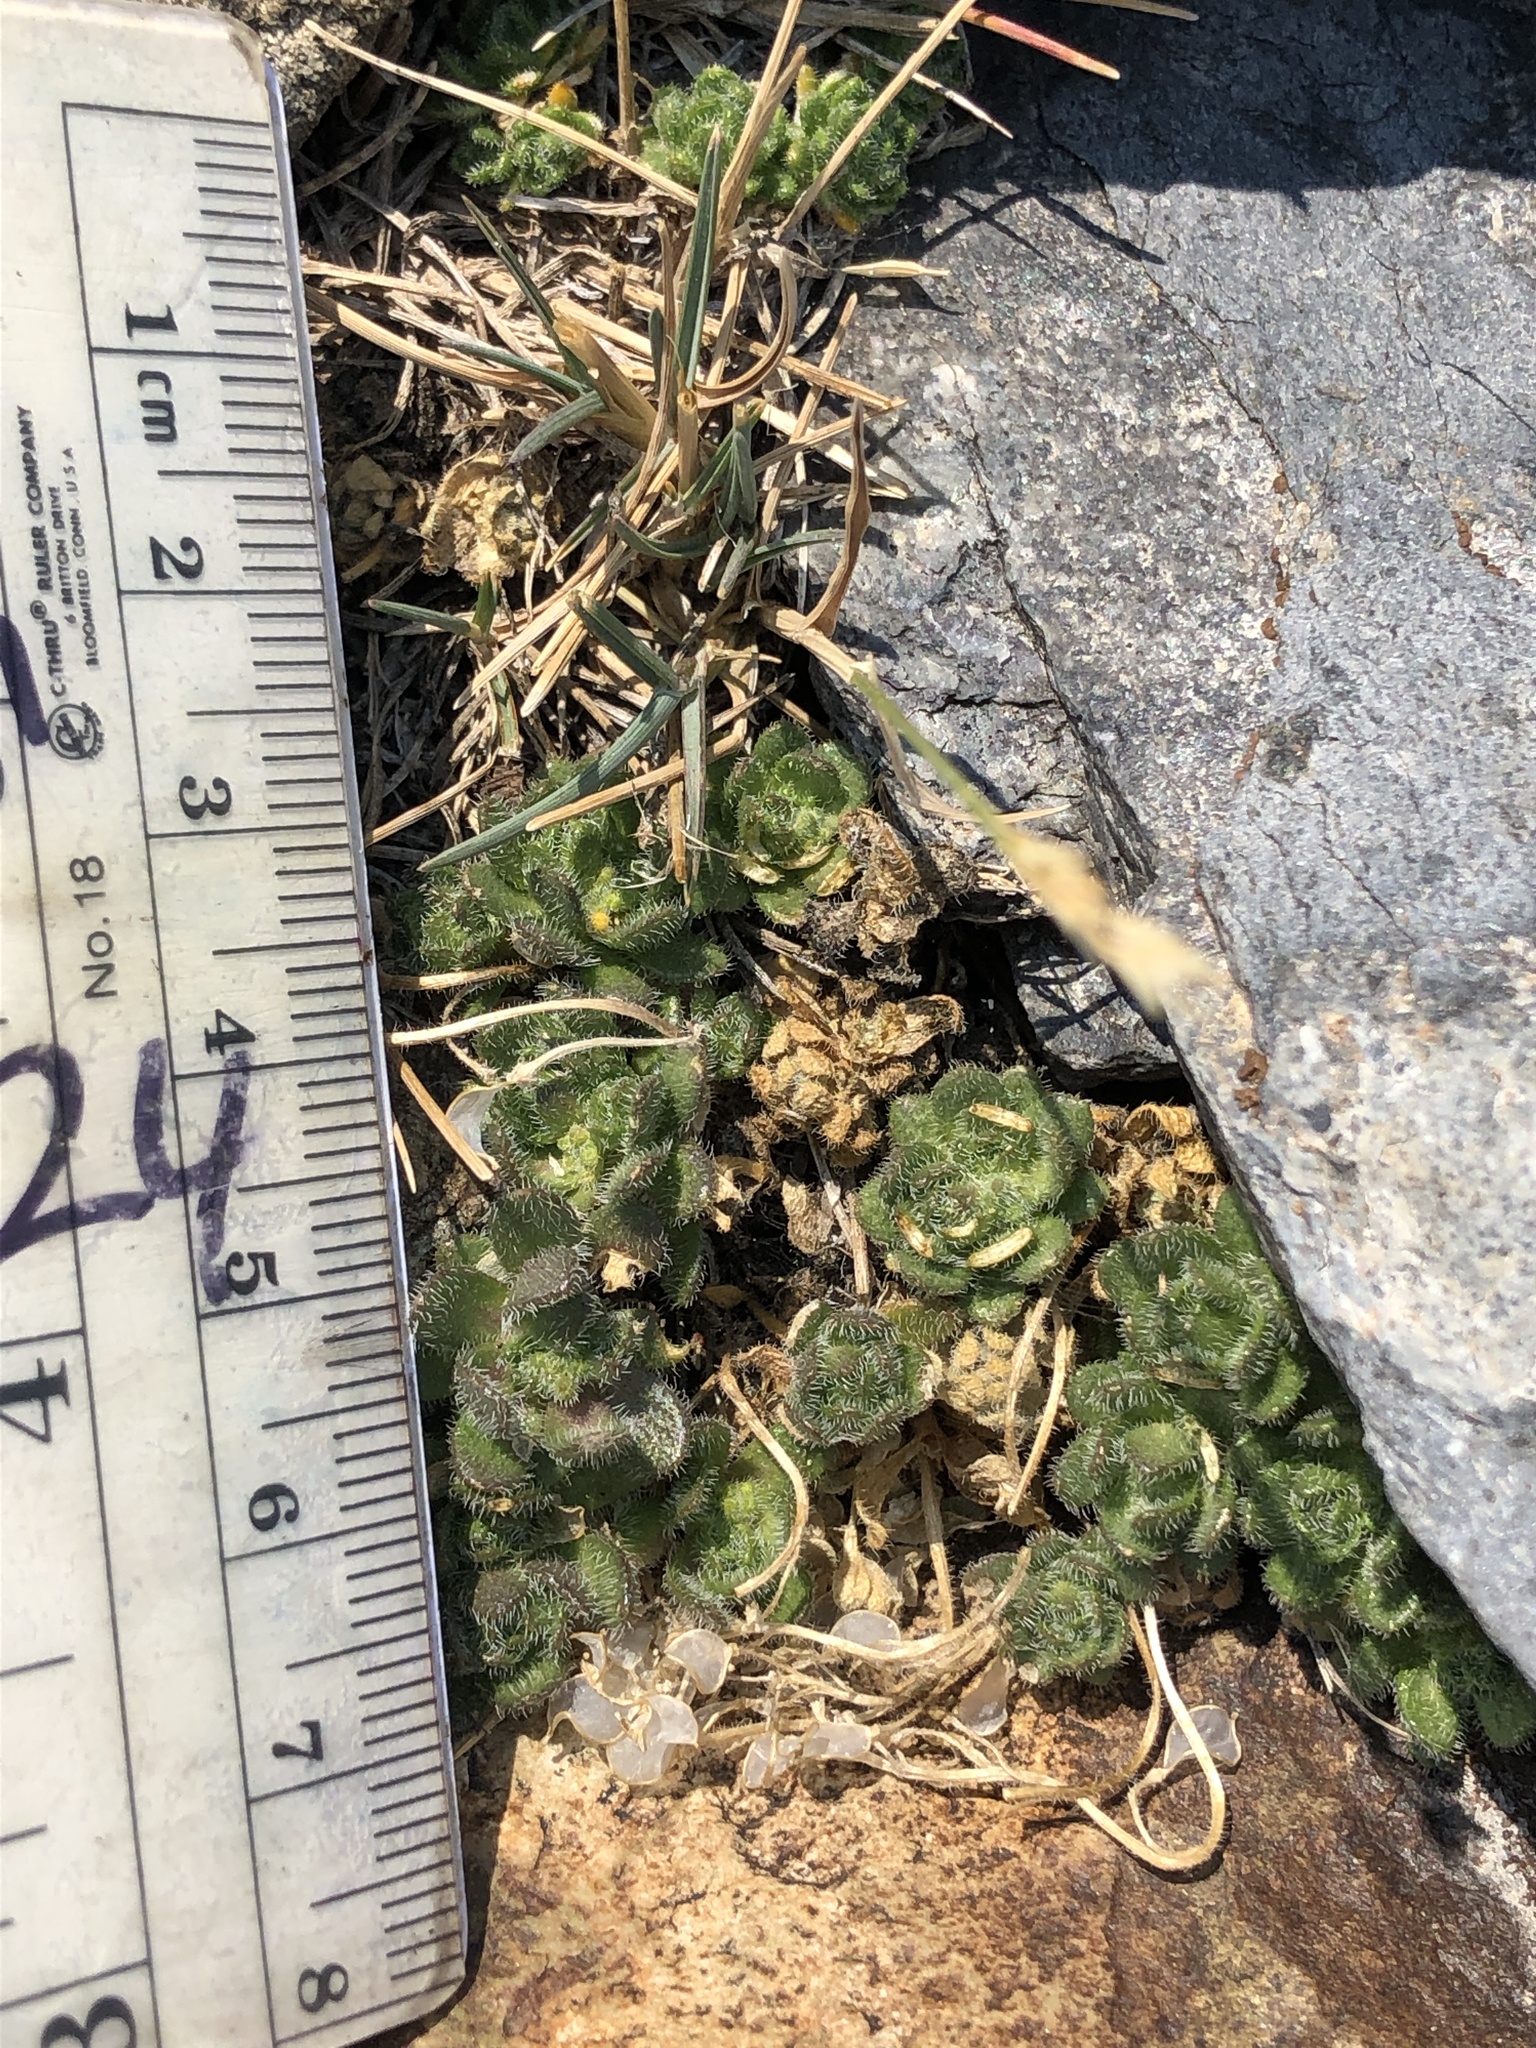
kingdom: Plantae
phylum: Tracheophyta
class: Magnoliopsida
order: Brassicales
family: Brassicaceae
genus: Draba
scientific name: Draba lemmonii
